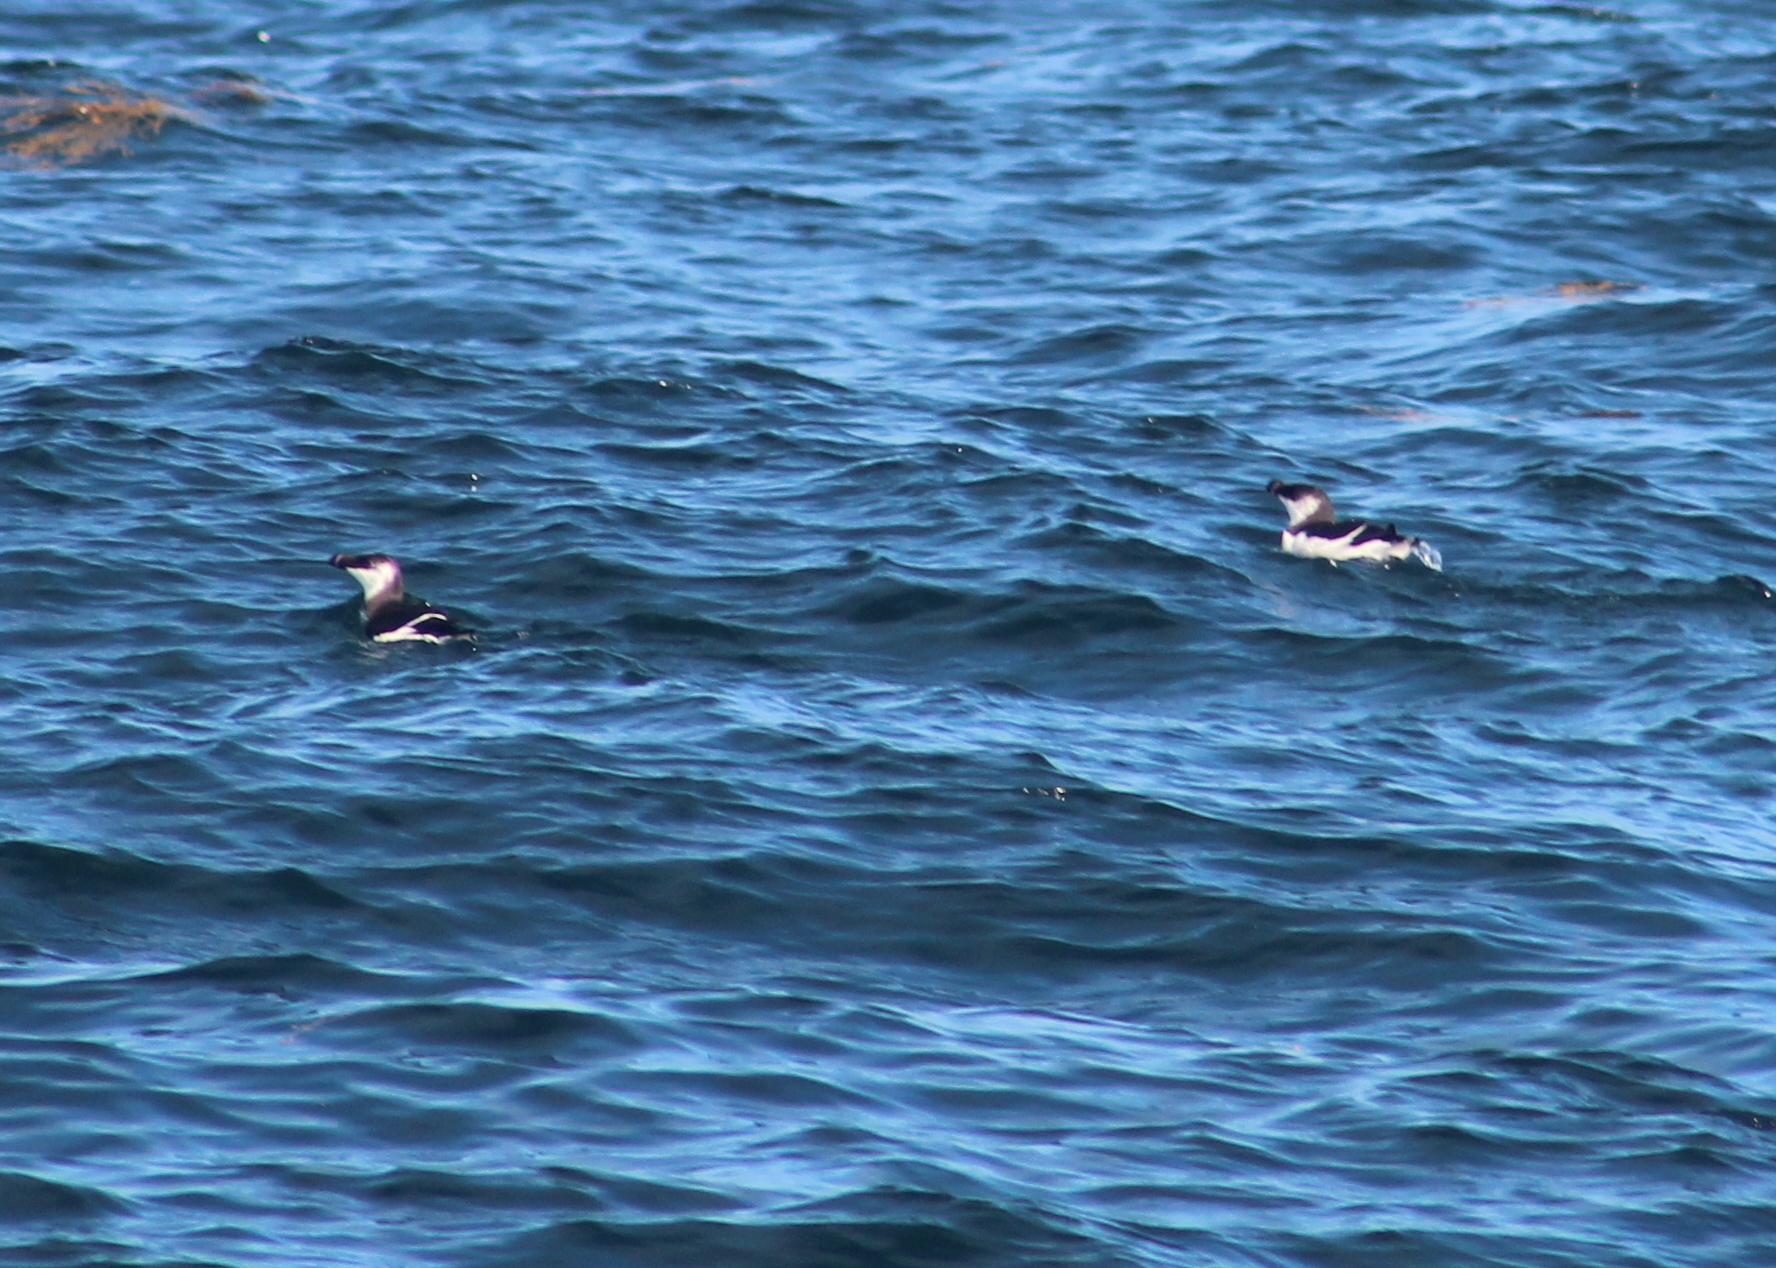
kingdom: Animalia
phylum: Chordata
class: Aves
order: Charadriiformes
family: Alcidae
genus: Alca
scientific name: Alca torda
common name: Razorbill
